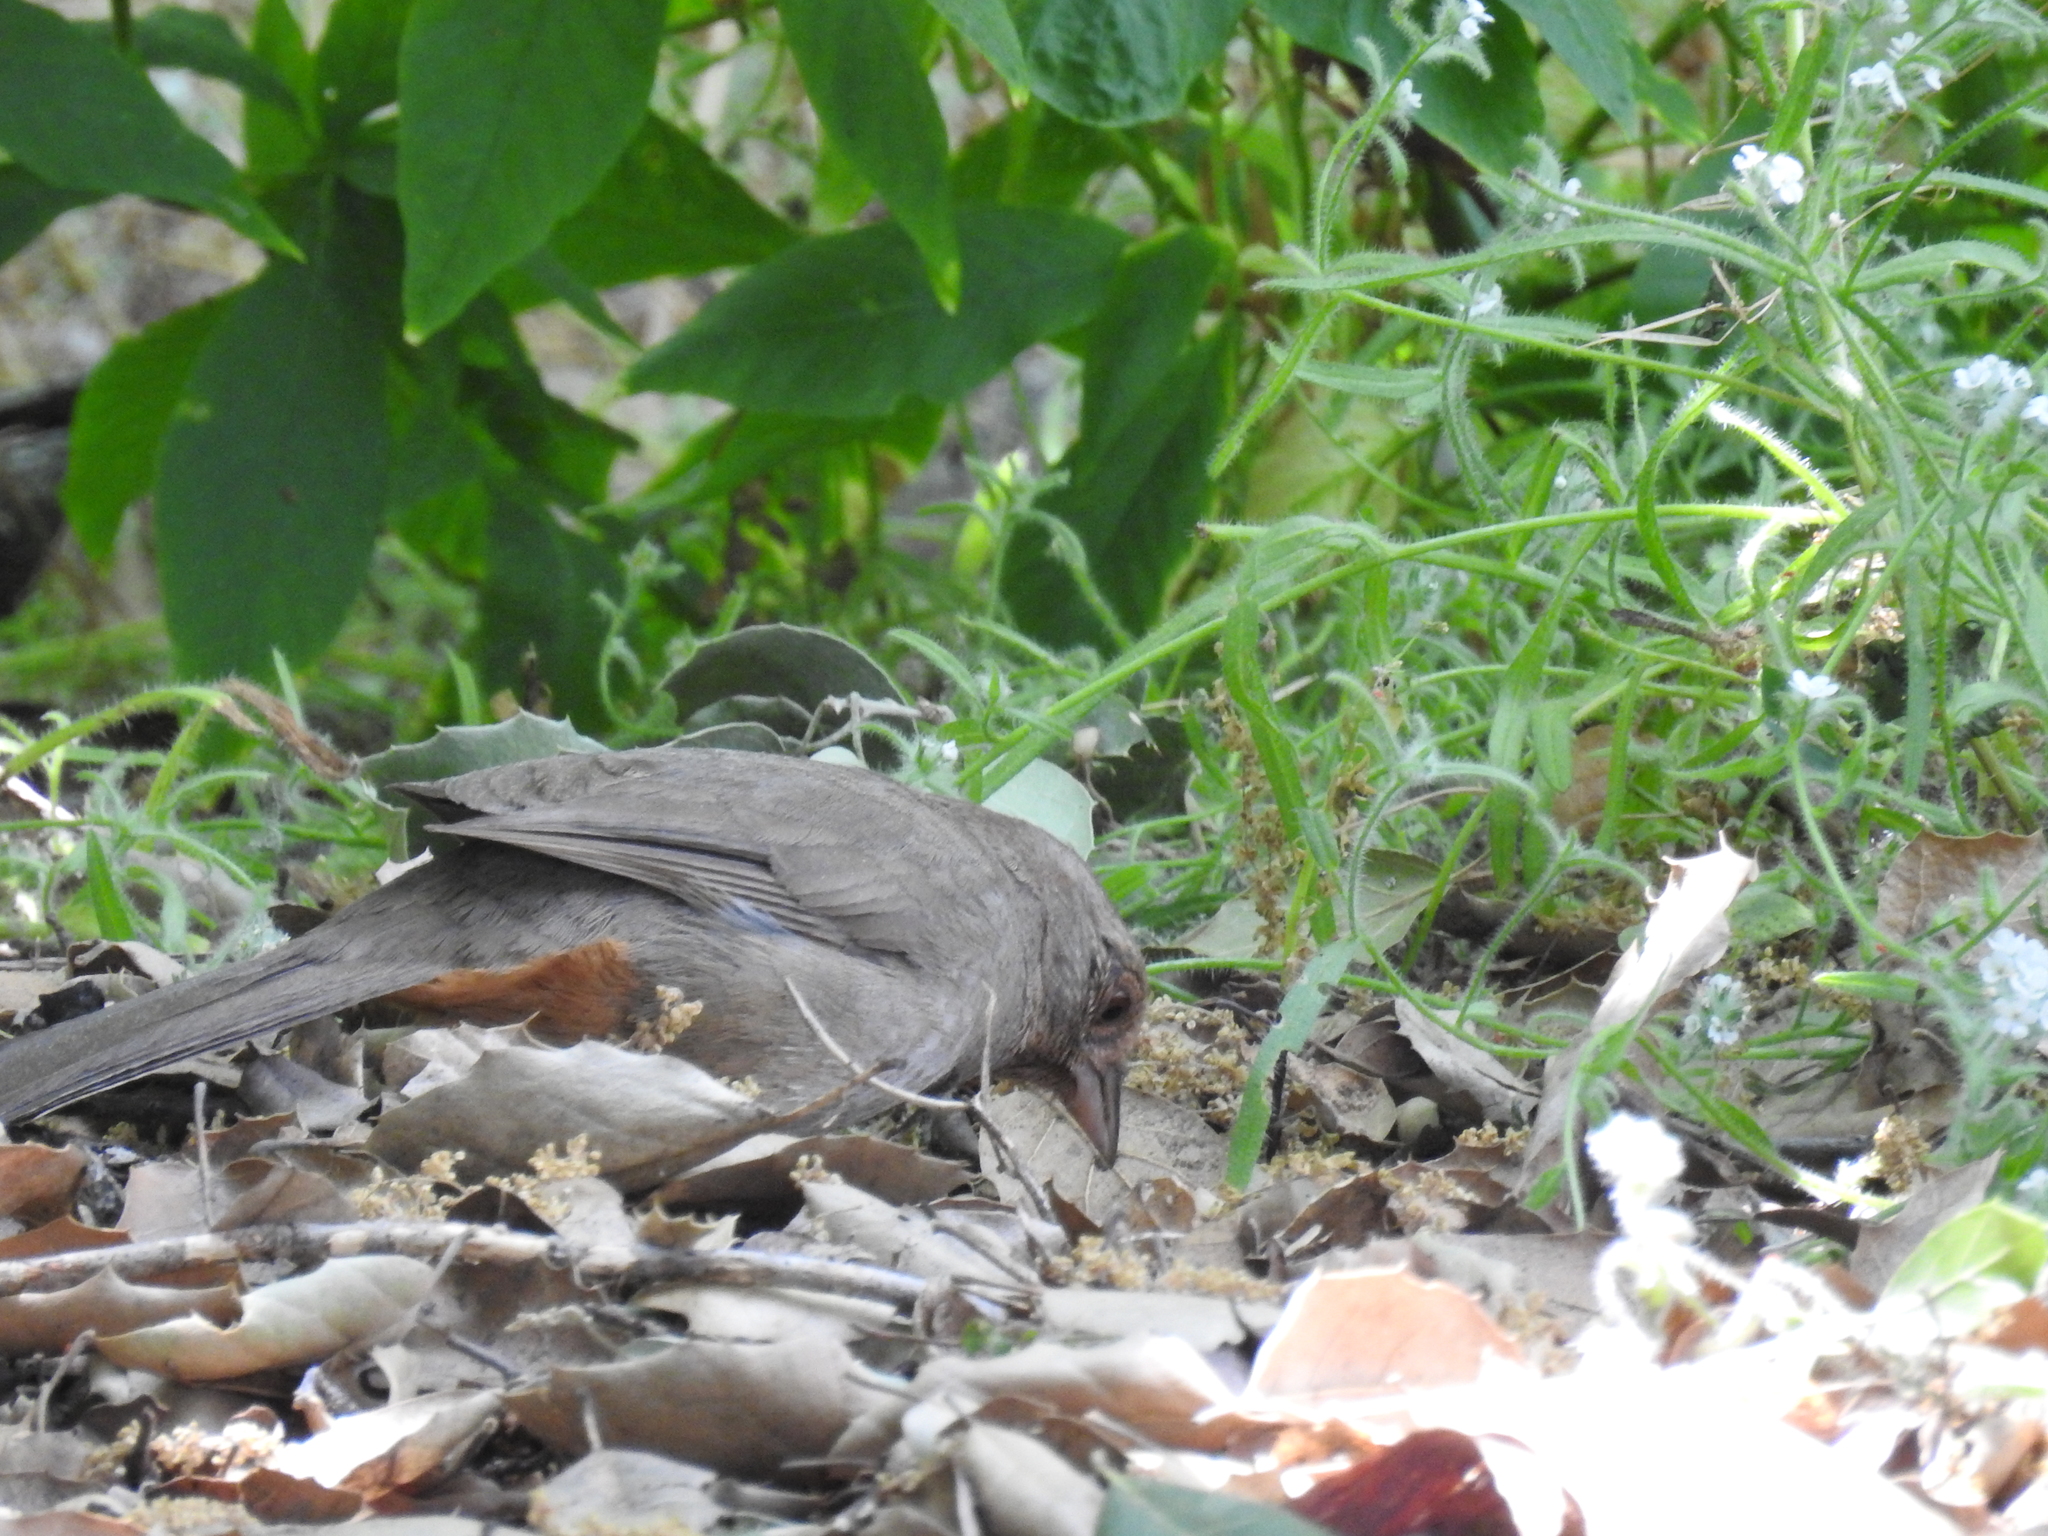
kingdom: Animalia
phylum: Chordata
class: Aves
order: Passeriformes
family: Passerellidae
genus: Melozone
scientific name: Melozone crissalis
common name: California towhee
